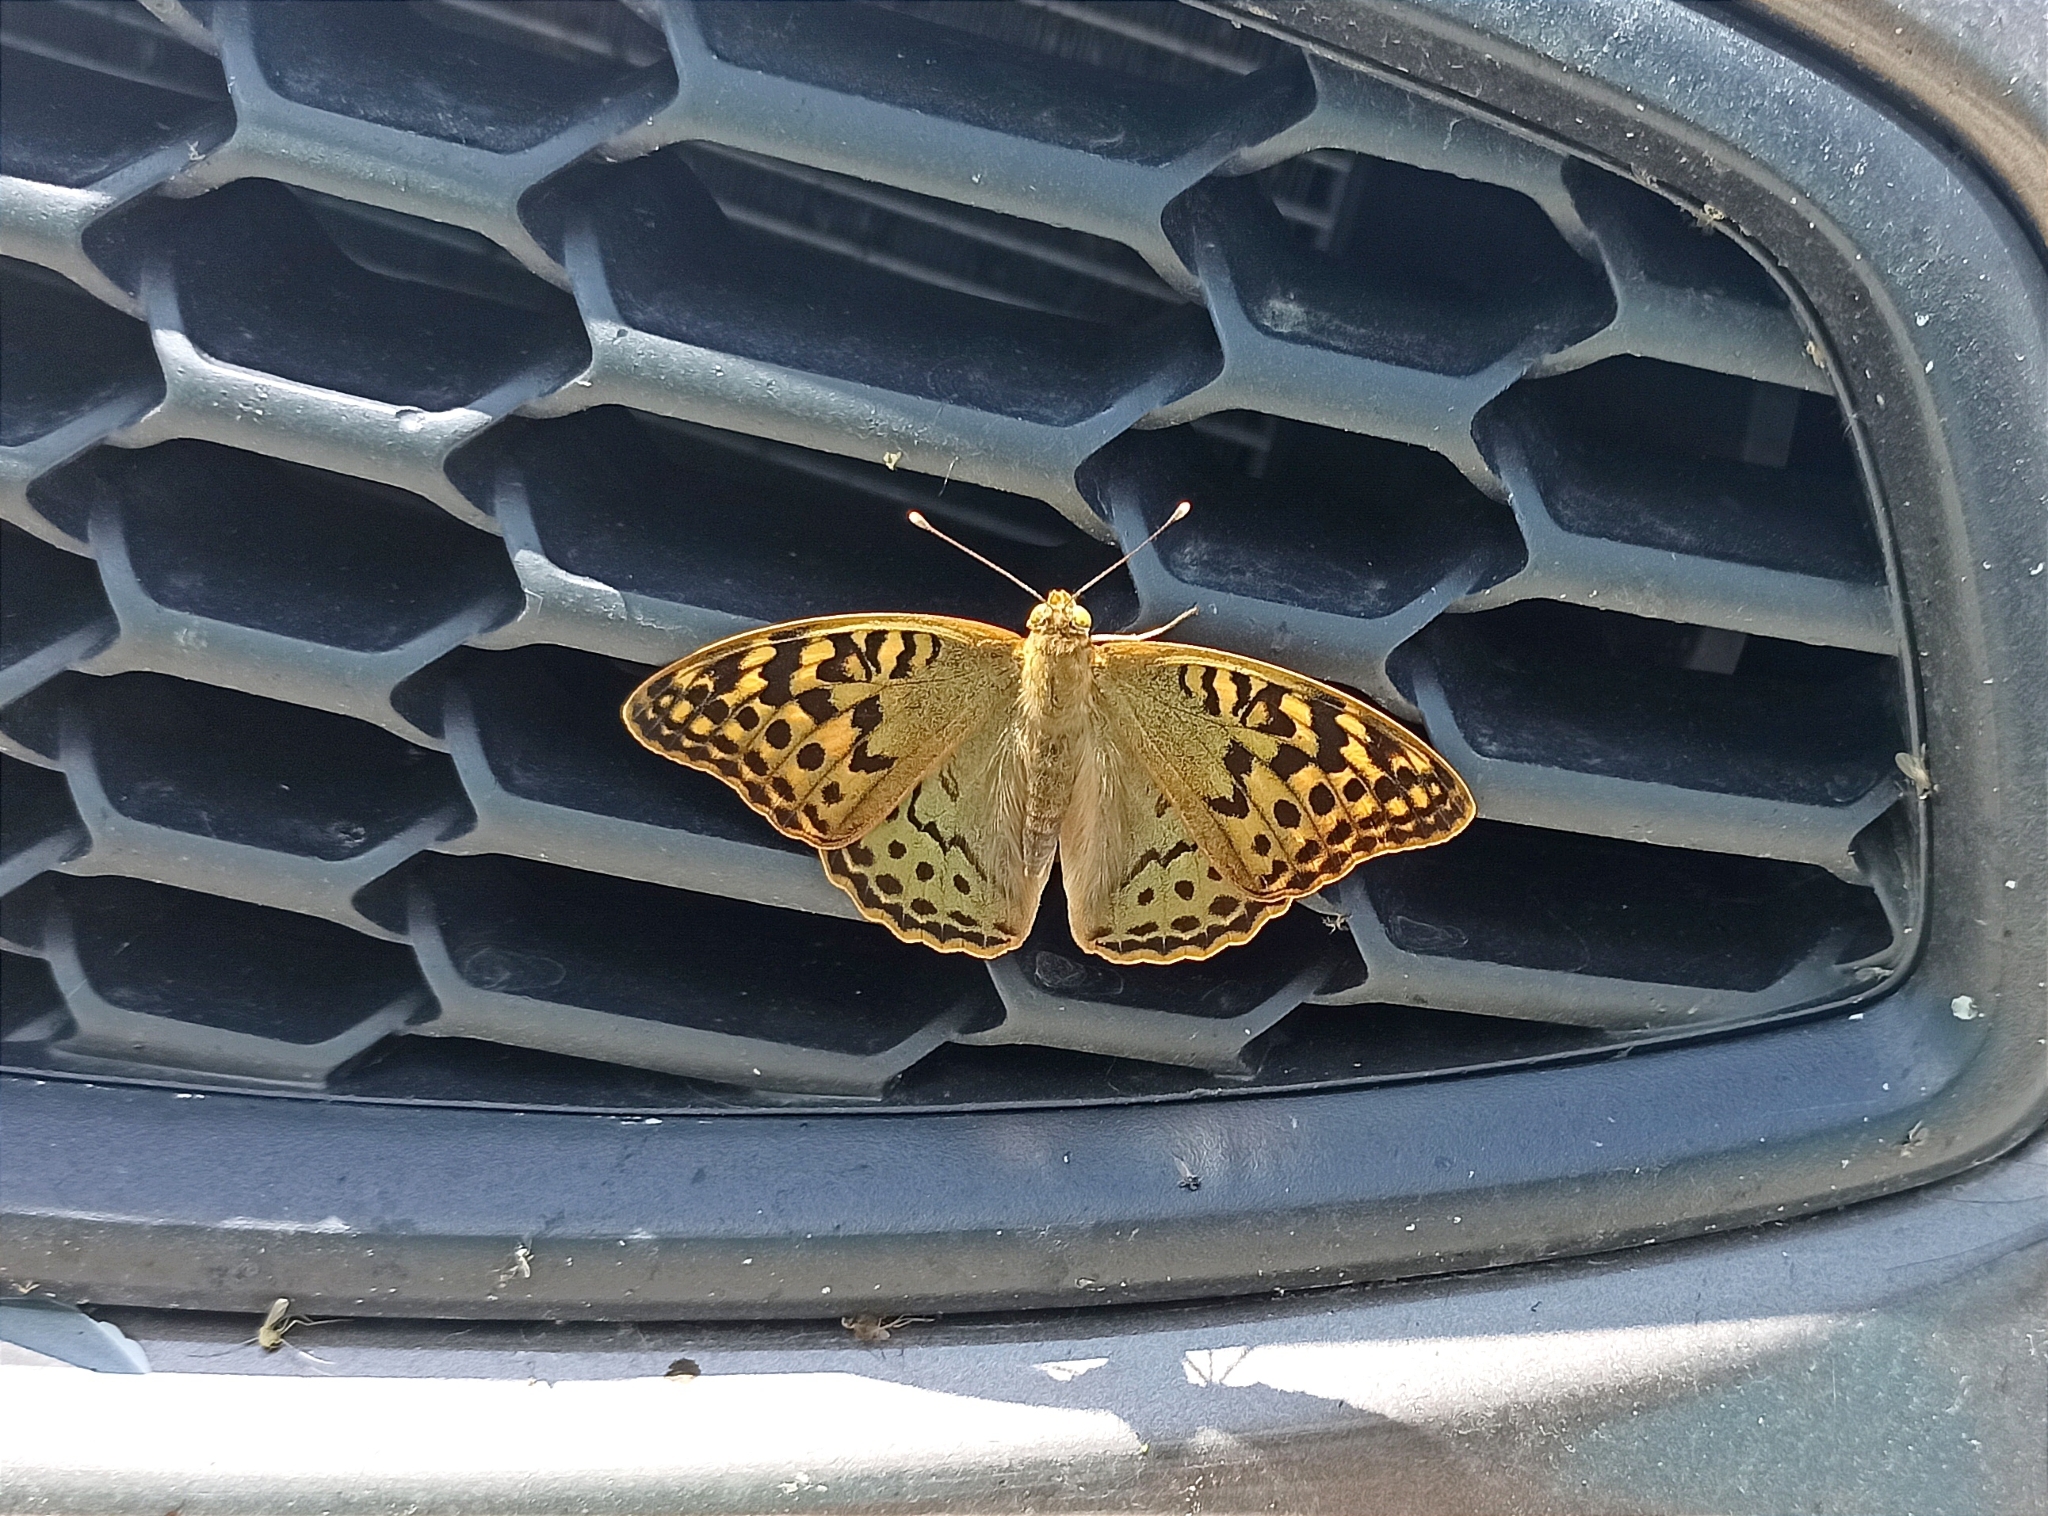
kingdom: Animalia
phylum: Arthropoda
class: Insecta
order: Lepidoptera
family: Nymphalidae
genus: Damora
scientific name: Damora pandora
